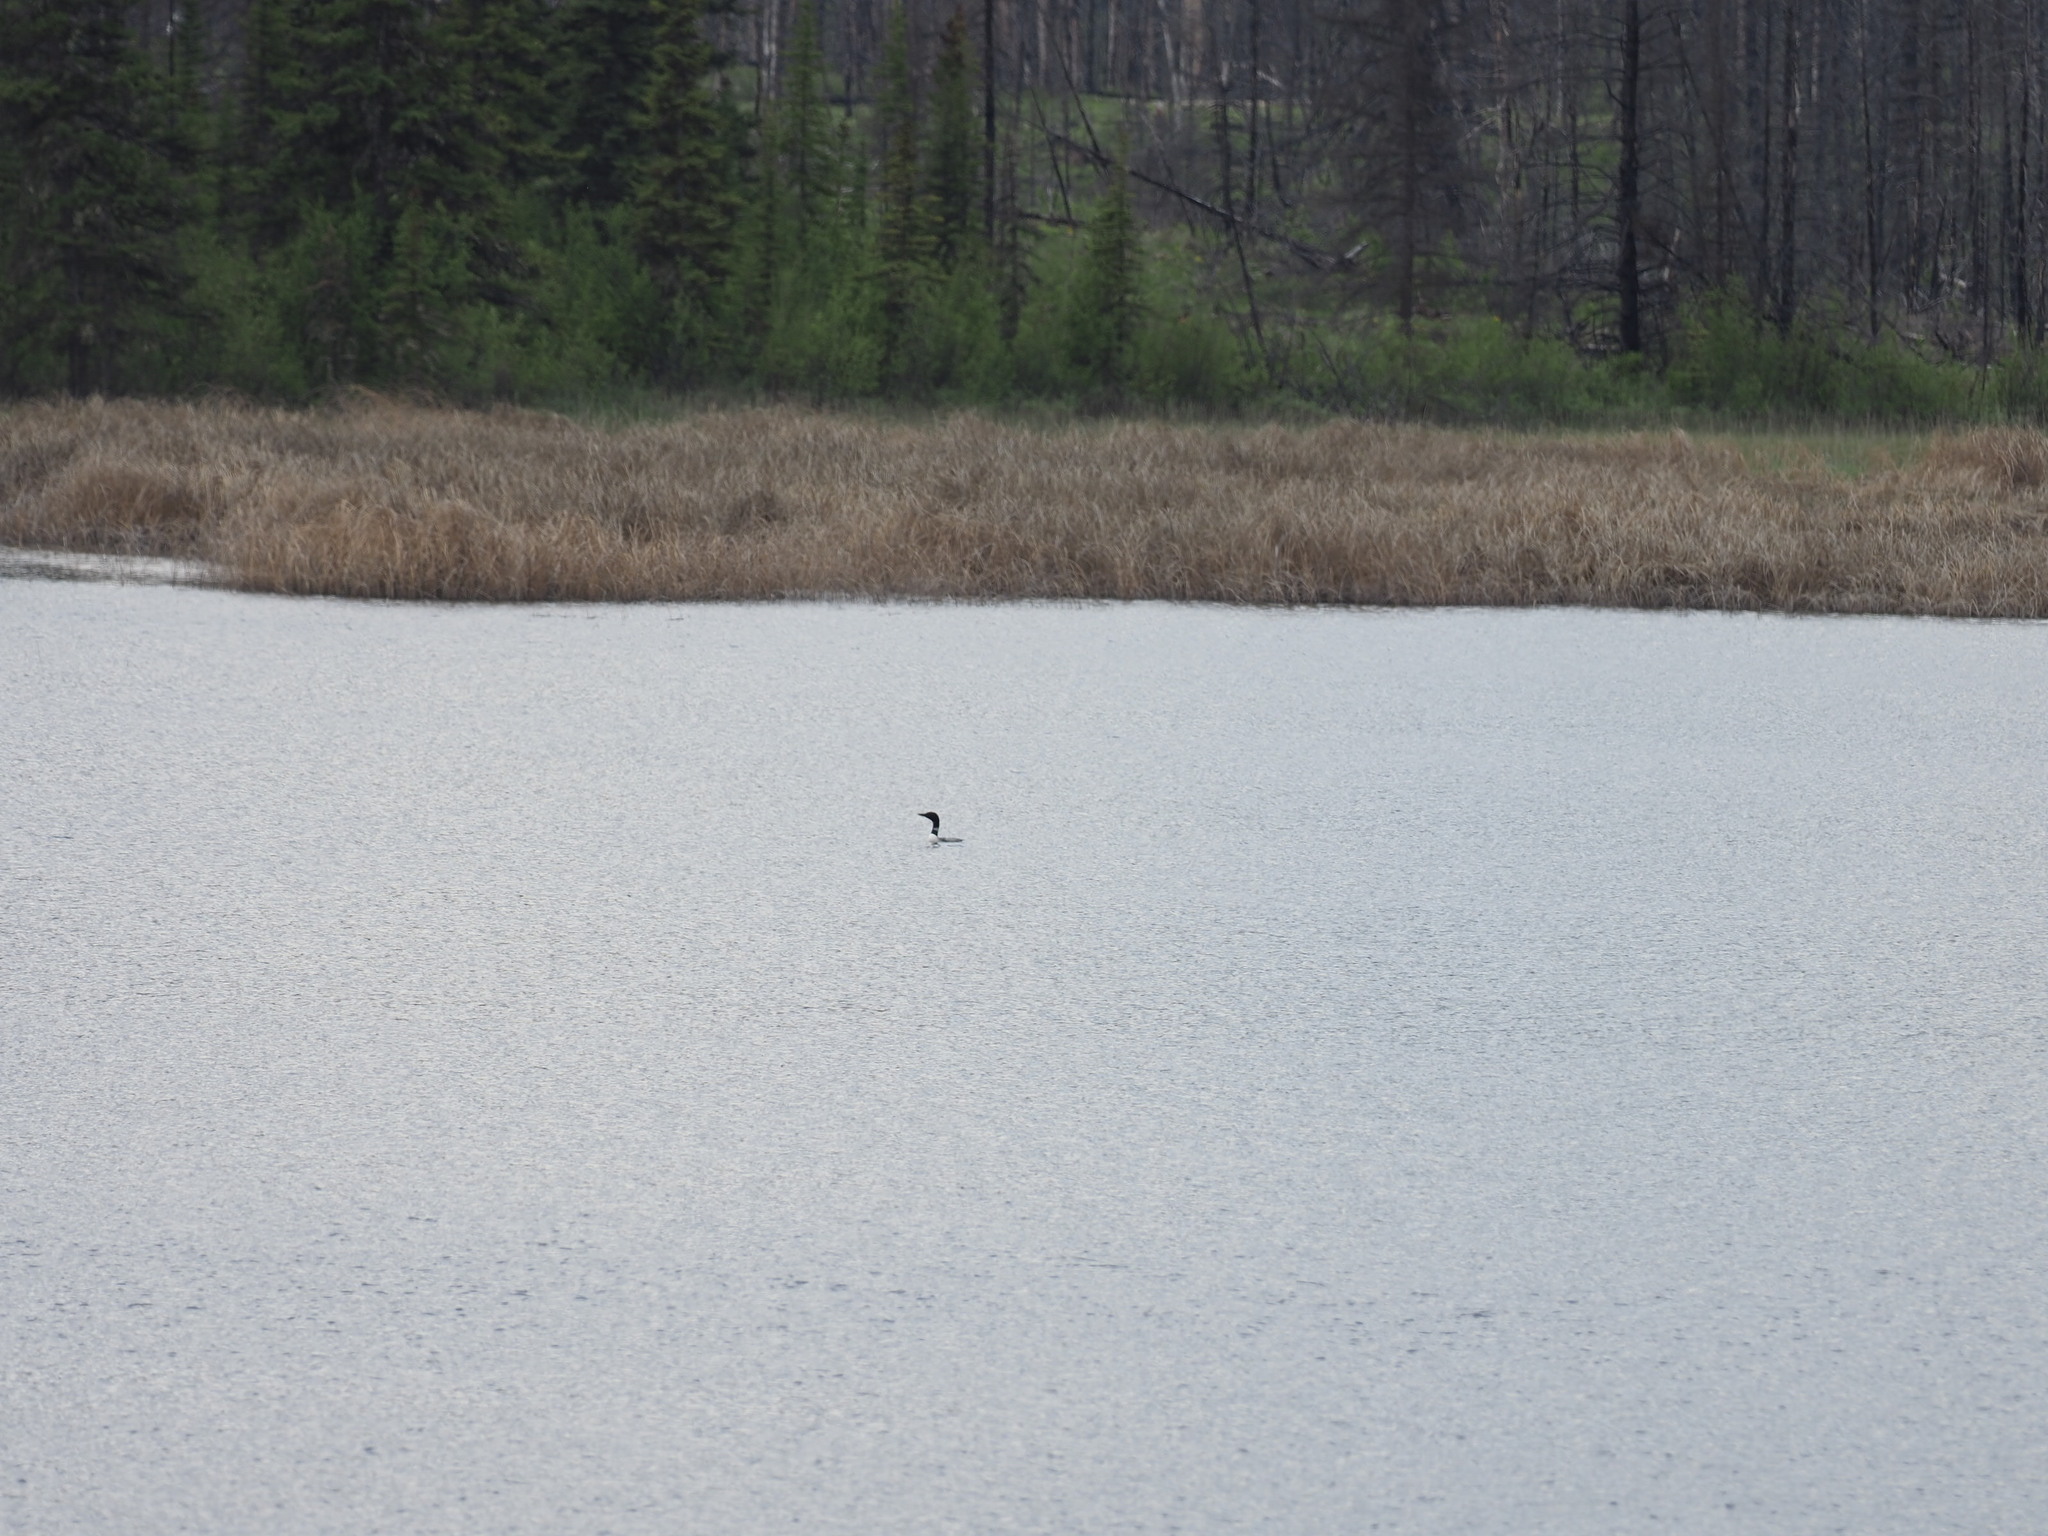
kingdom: Animalia
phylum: Chordata
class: Aves
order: Gaviiformes
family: Gaviidae
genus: Gavia
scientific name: Gavia immer
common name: Common loon
